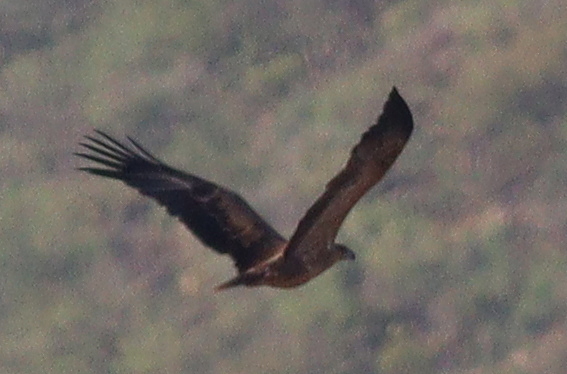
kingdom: Animalia
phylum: Chordata
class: Aves
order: Accipitriformes
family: Accipitridae
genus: Aquila
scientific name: Aquila rapax
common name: Tawny eagle
